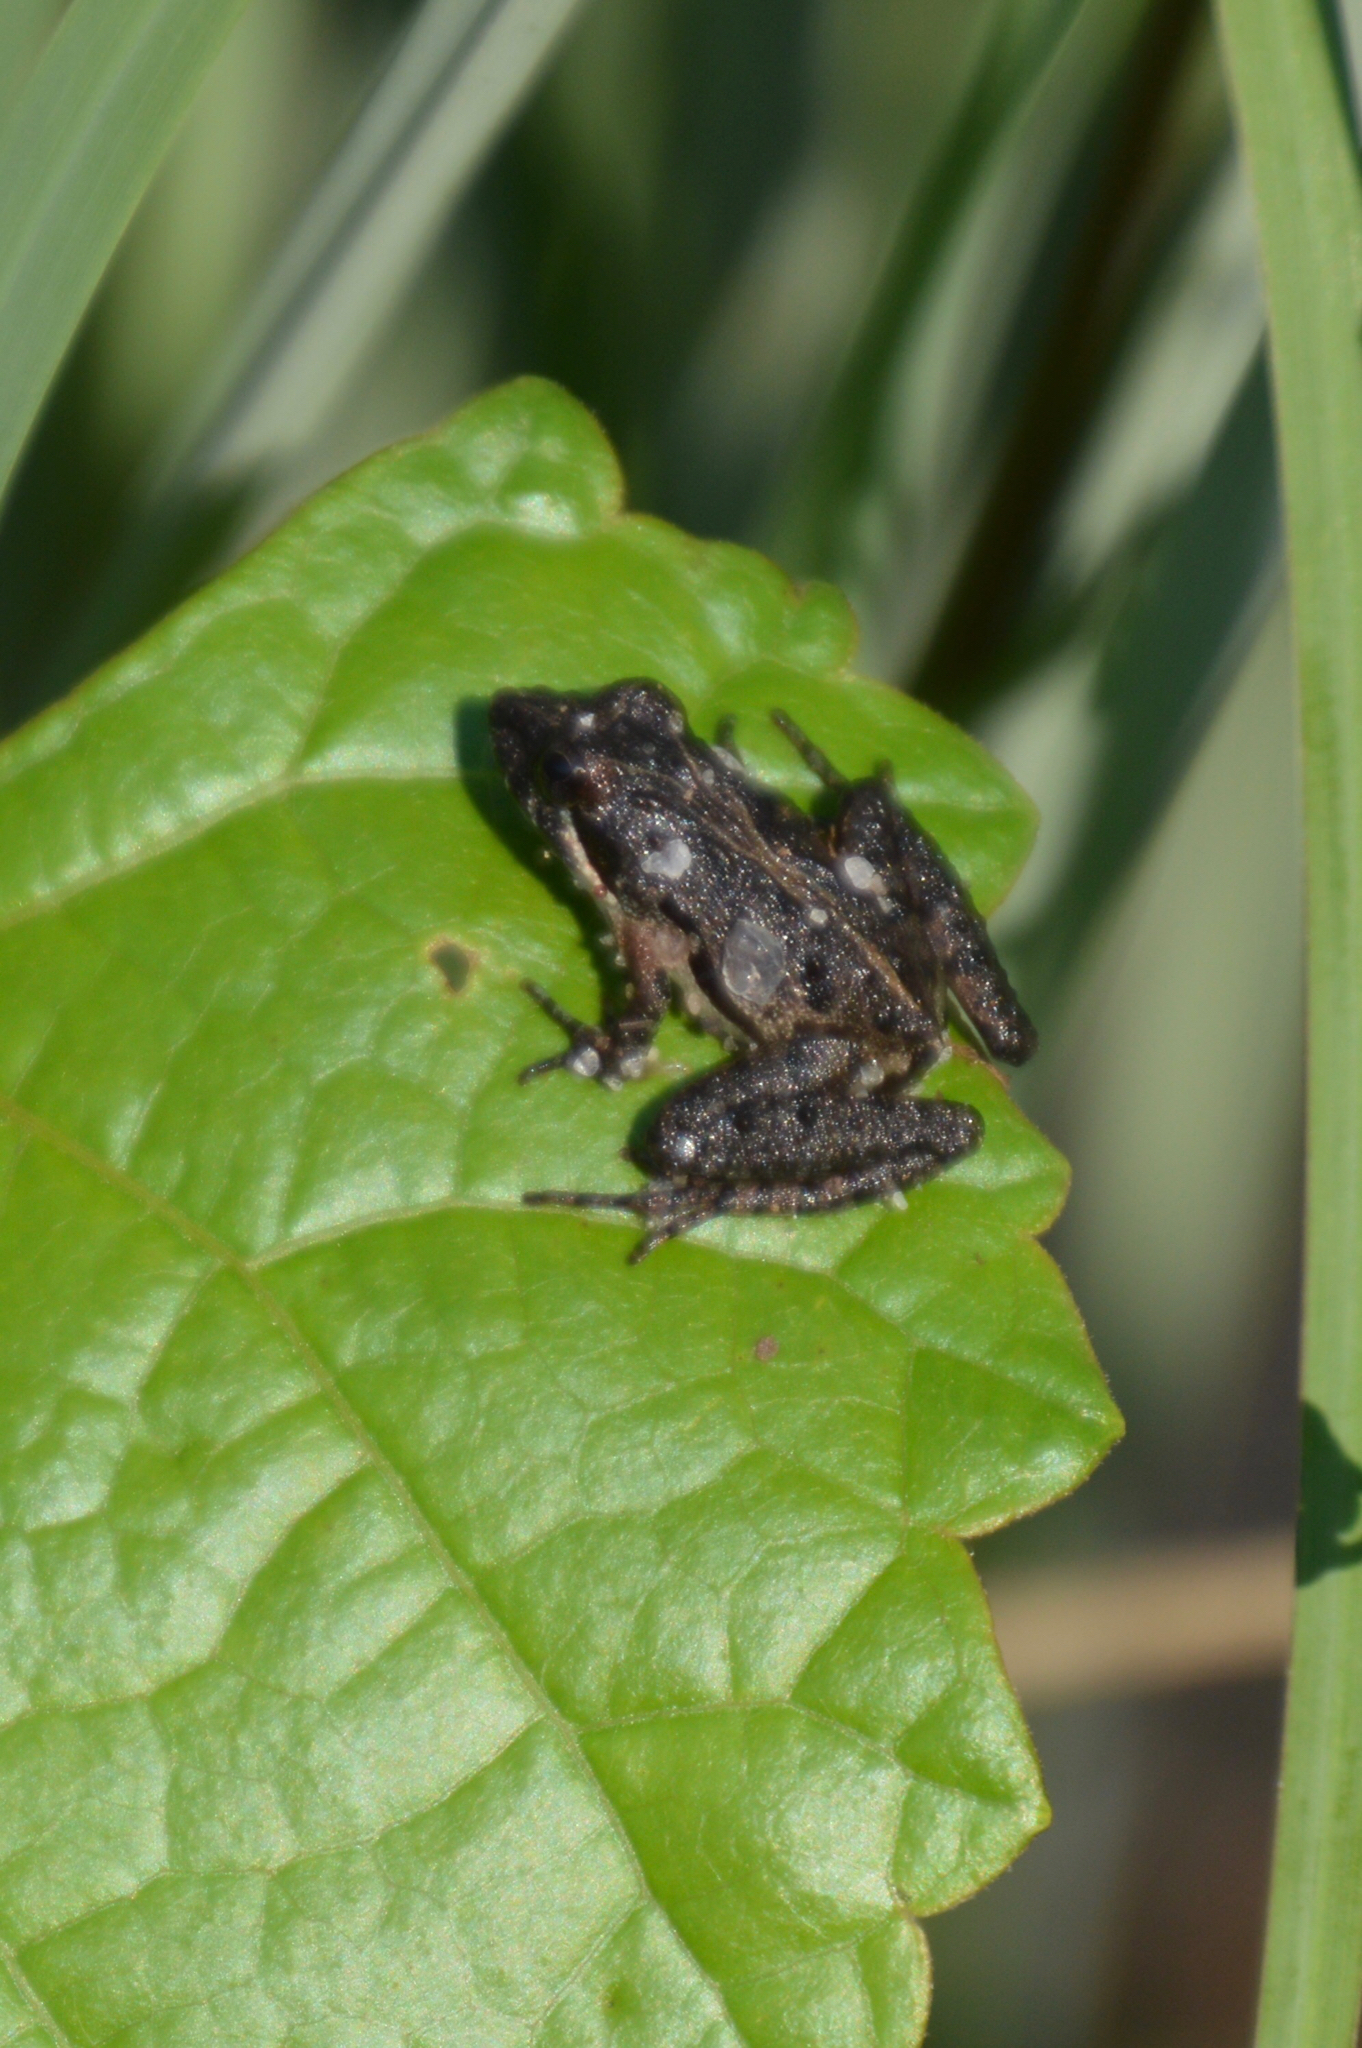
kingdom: Animalia
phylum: Chordata
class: Amphibia
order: Anura
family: Hylidae
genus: Acris
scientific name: Acris gryllus
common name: Southern cricket frog
